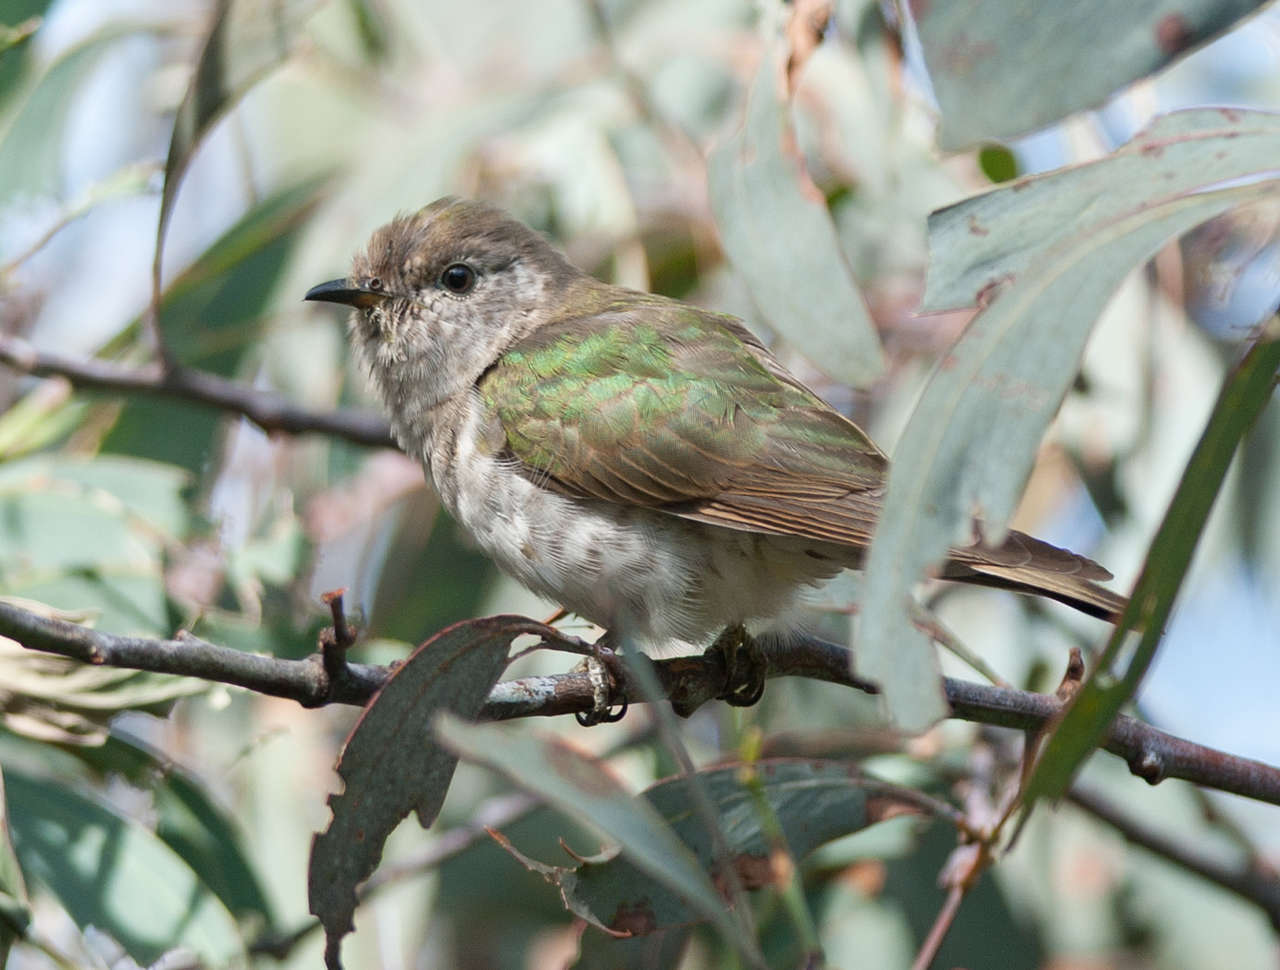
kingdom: Animalia
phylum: Chordata
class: Aves
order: Cuculiformes
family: Cuculidae
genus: Chrysococcyx
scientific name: Chrysococcyx lucidus
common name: Shining bronze cuckoo
